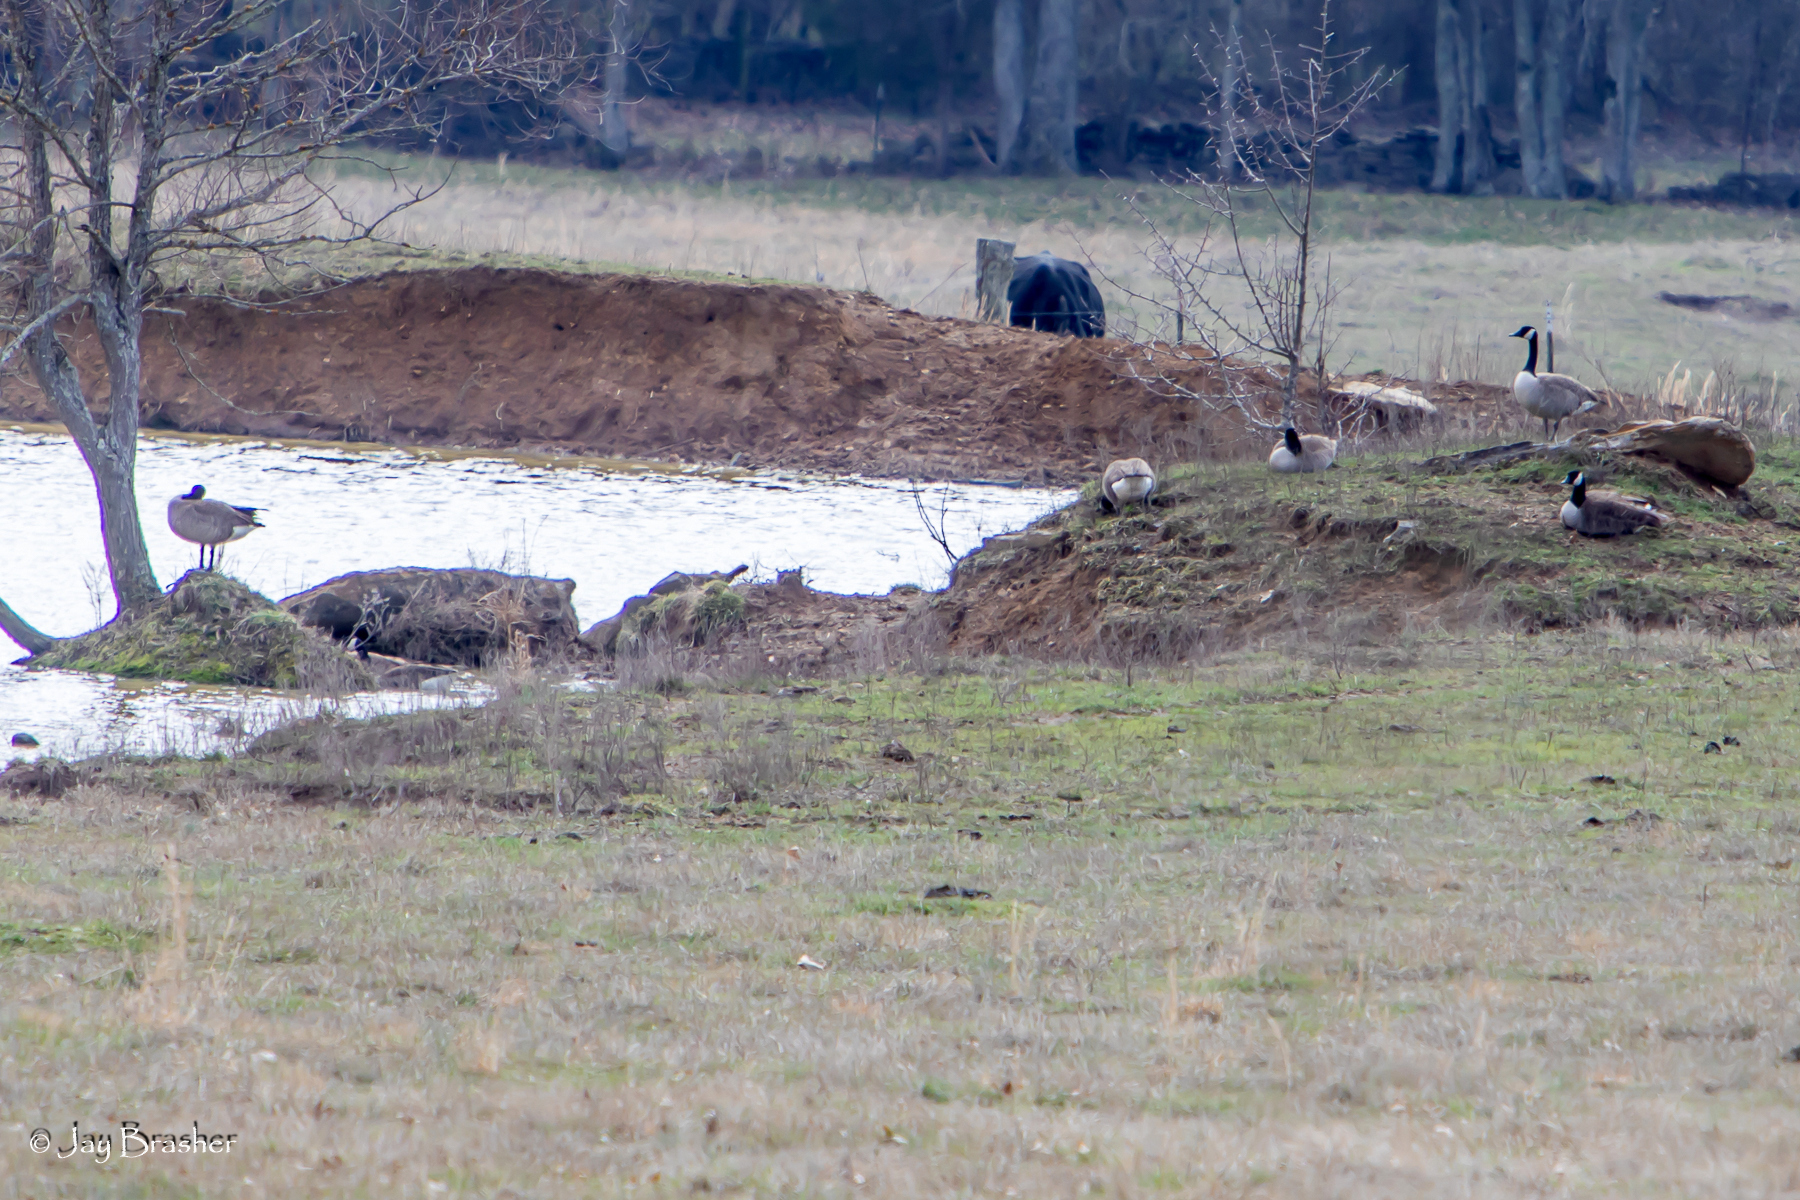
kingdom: Animalia
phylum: Chordata
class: Aves
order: Anseriformes
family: Anatidae
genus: Branta
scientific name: Branta canadensis
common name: Canada goose
